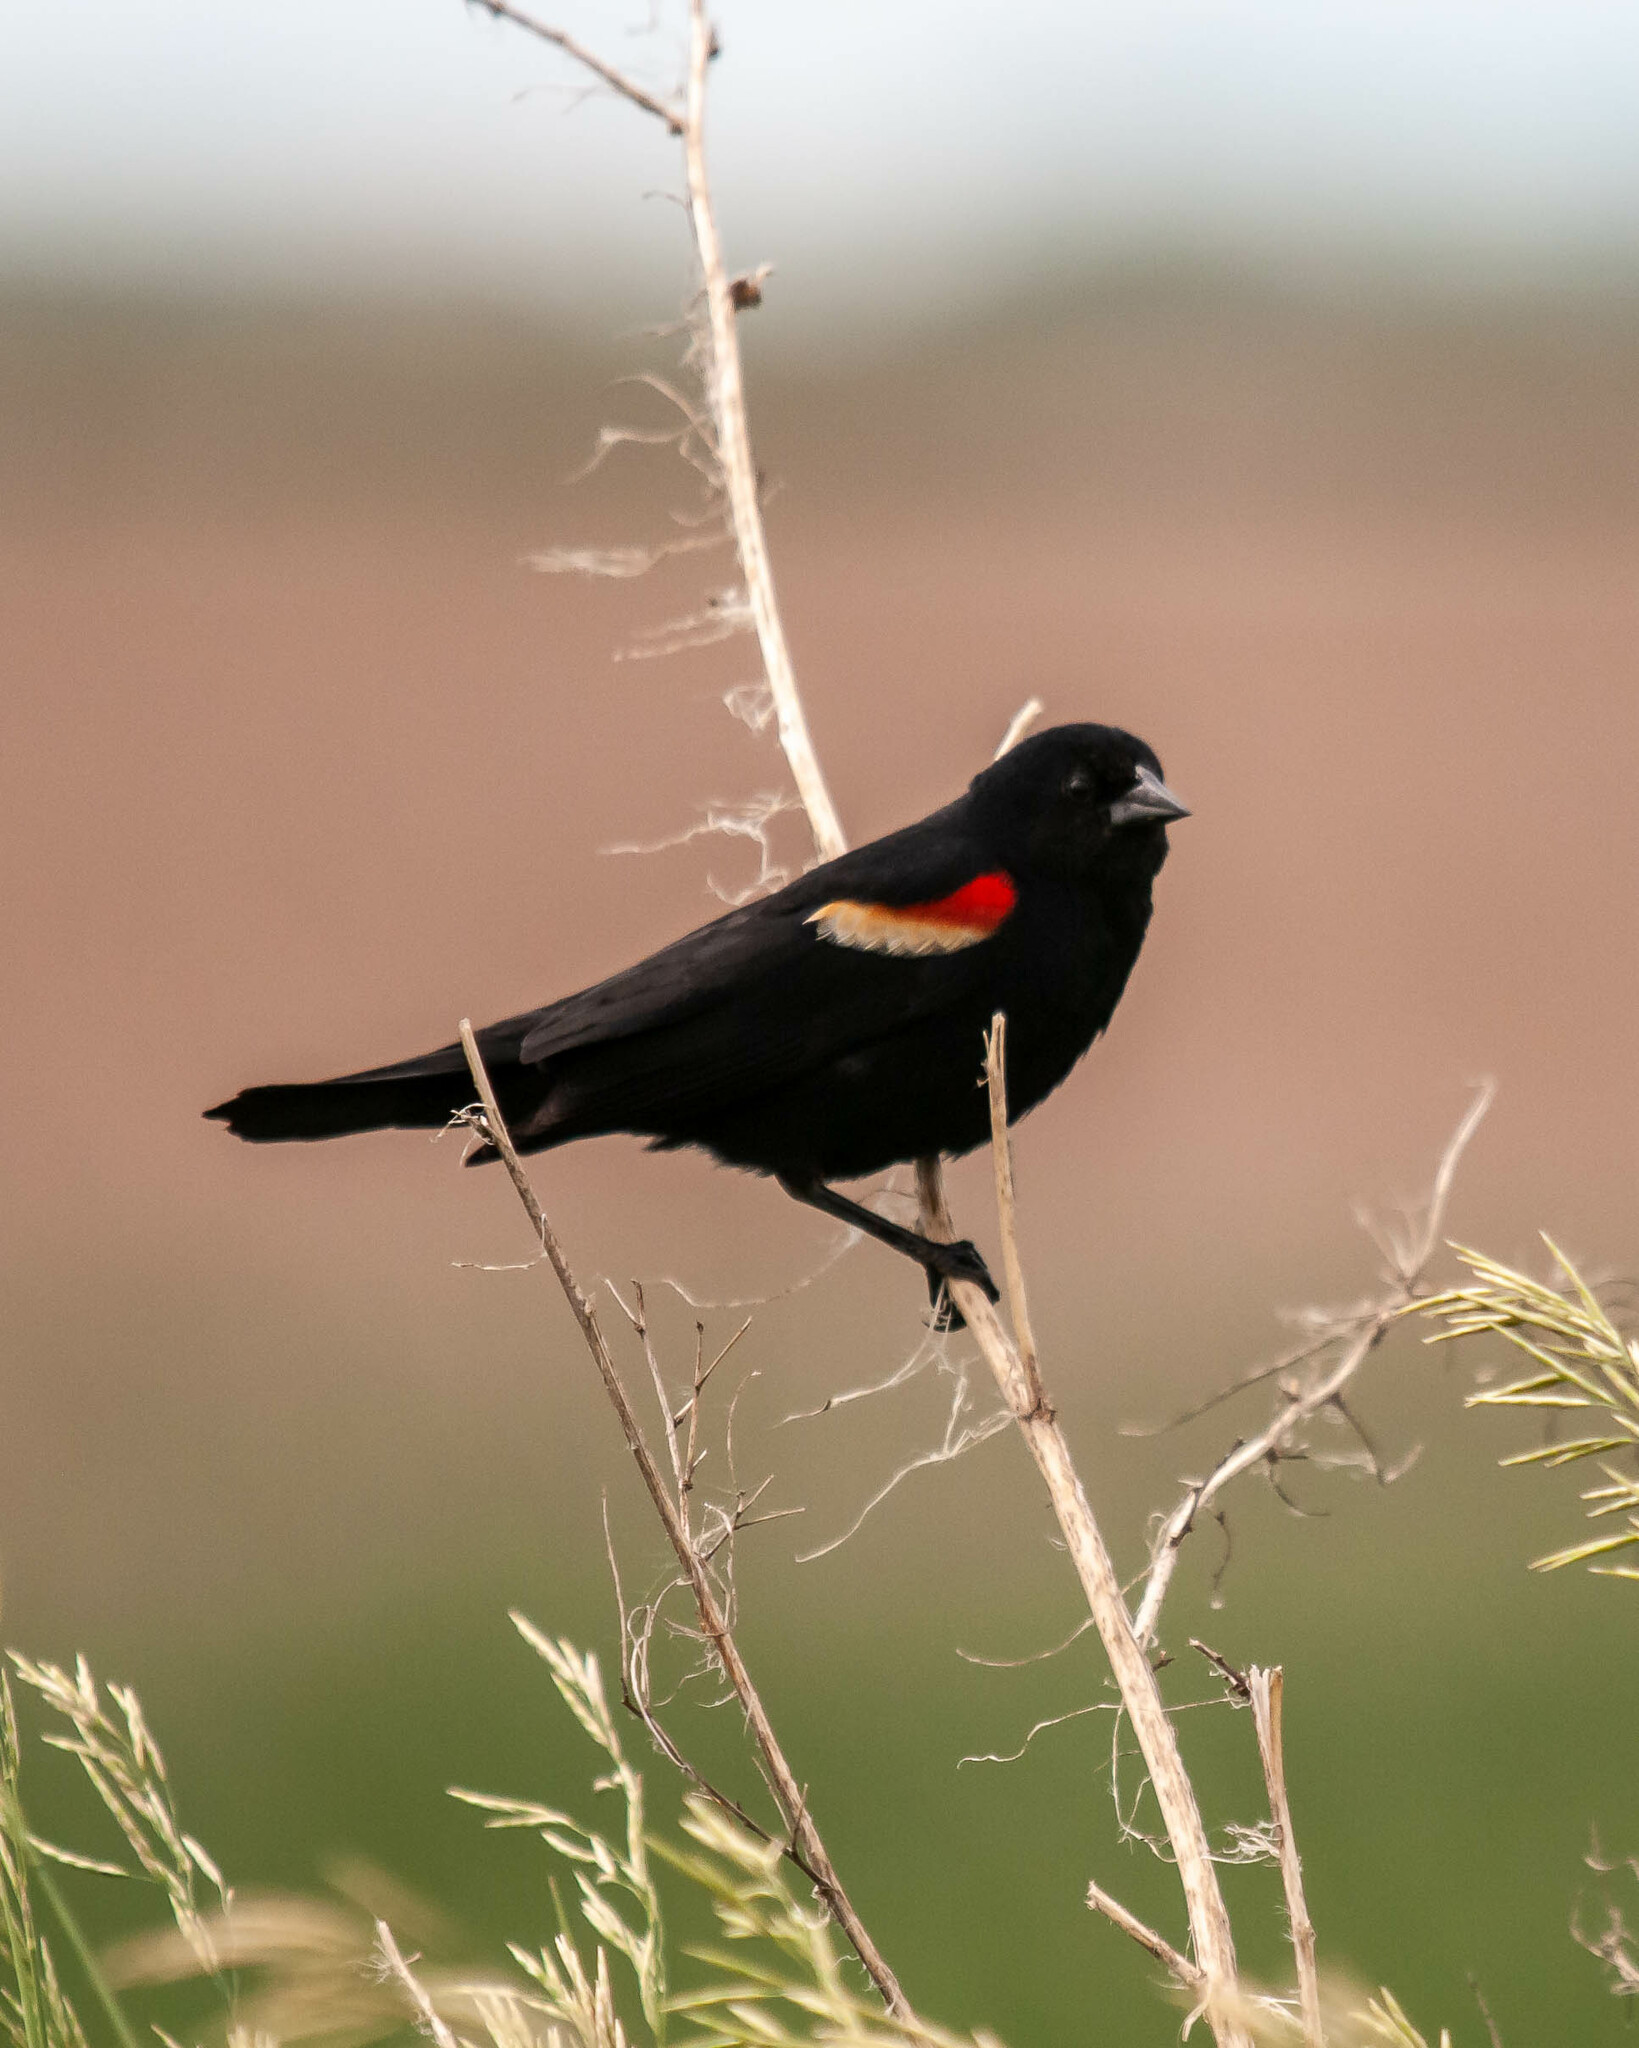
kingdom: Animalia
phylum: Chordata
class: Aves
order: Passeriformes
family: Icteridae
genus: Agelaius
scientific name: Agelaius phoeniceus
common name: Red-winged blackbird
